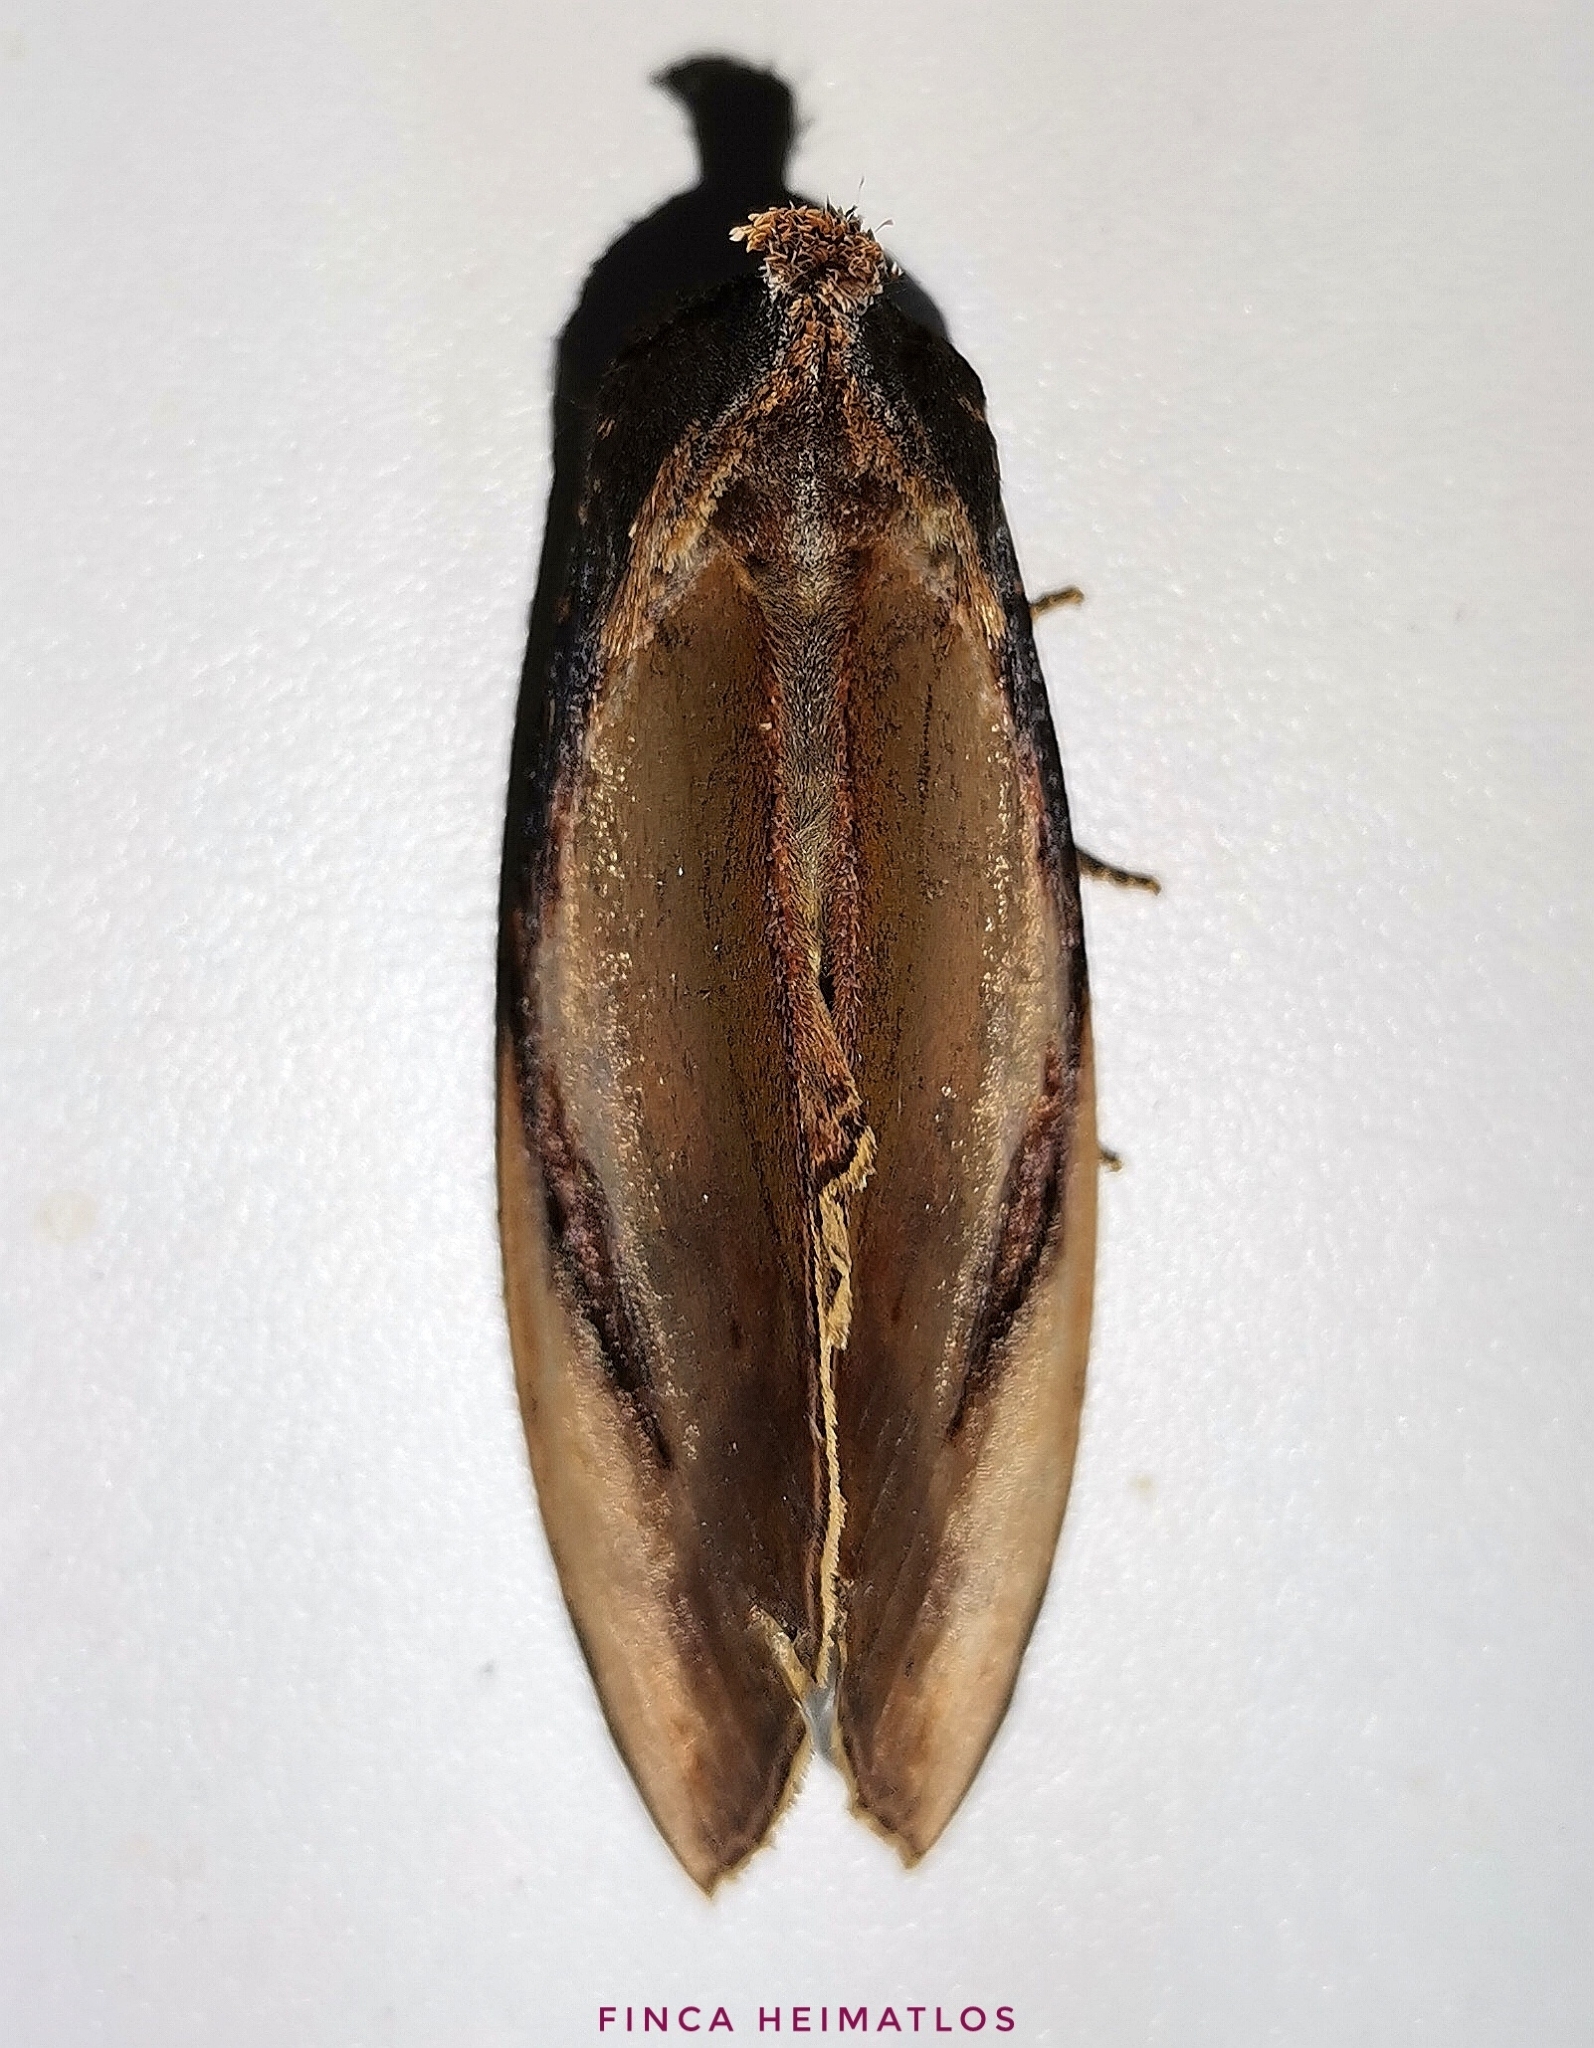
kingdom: Animalia
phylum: Arthropoda
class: Insecta
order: Lepidoptera
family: Notodontidae
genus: Crinodes
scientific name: Crinodes bellatrix
